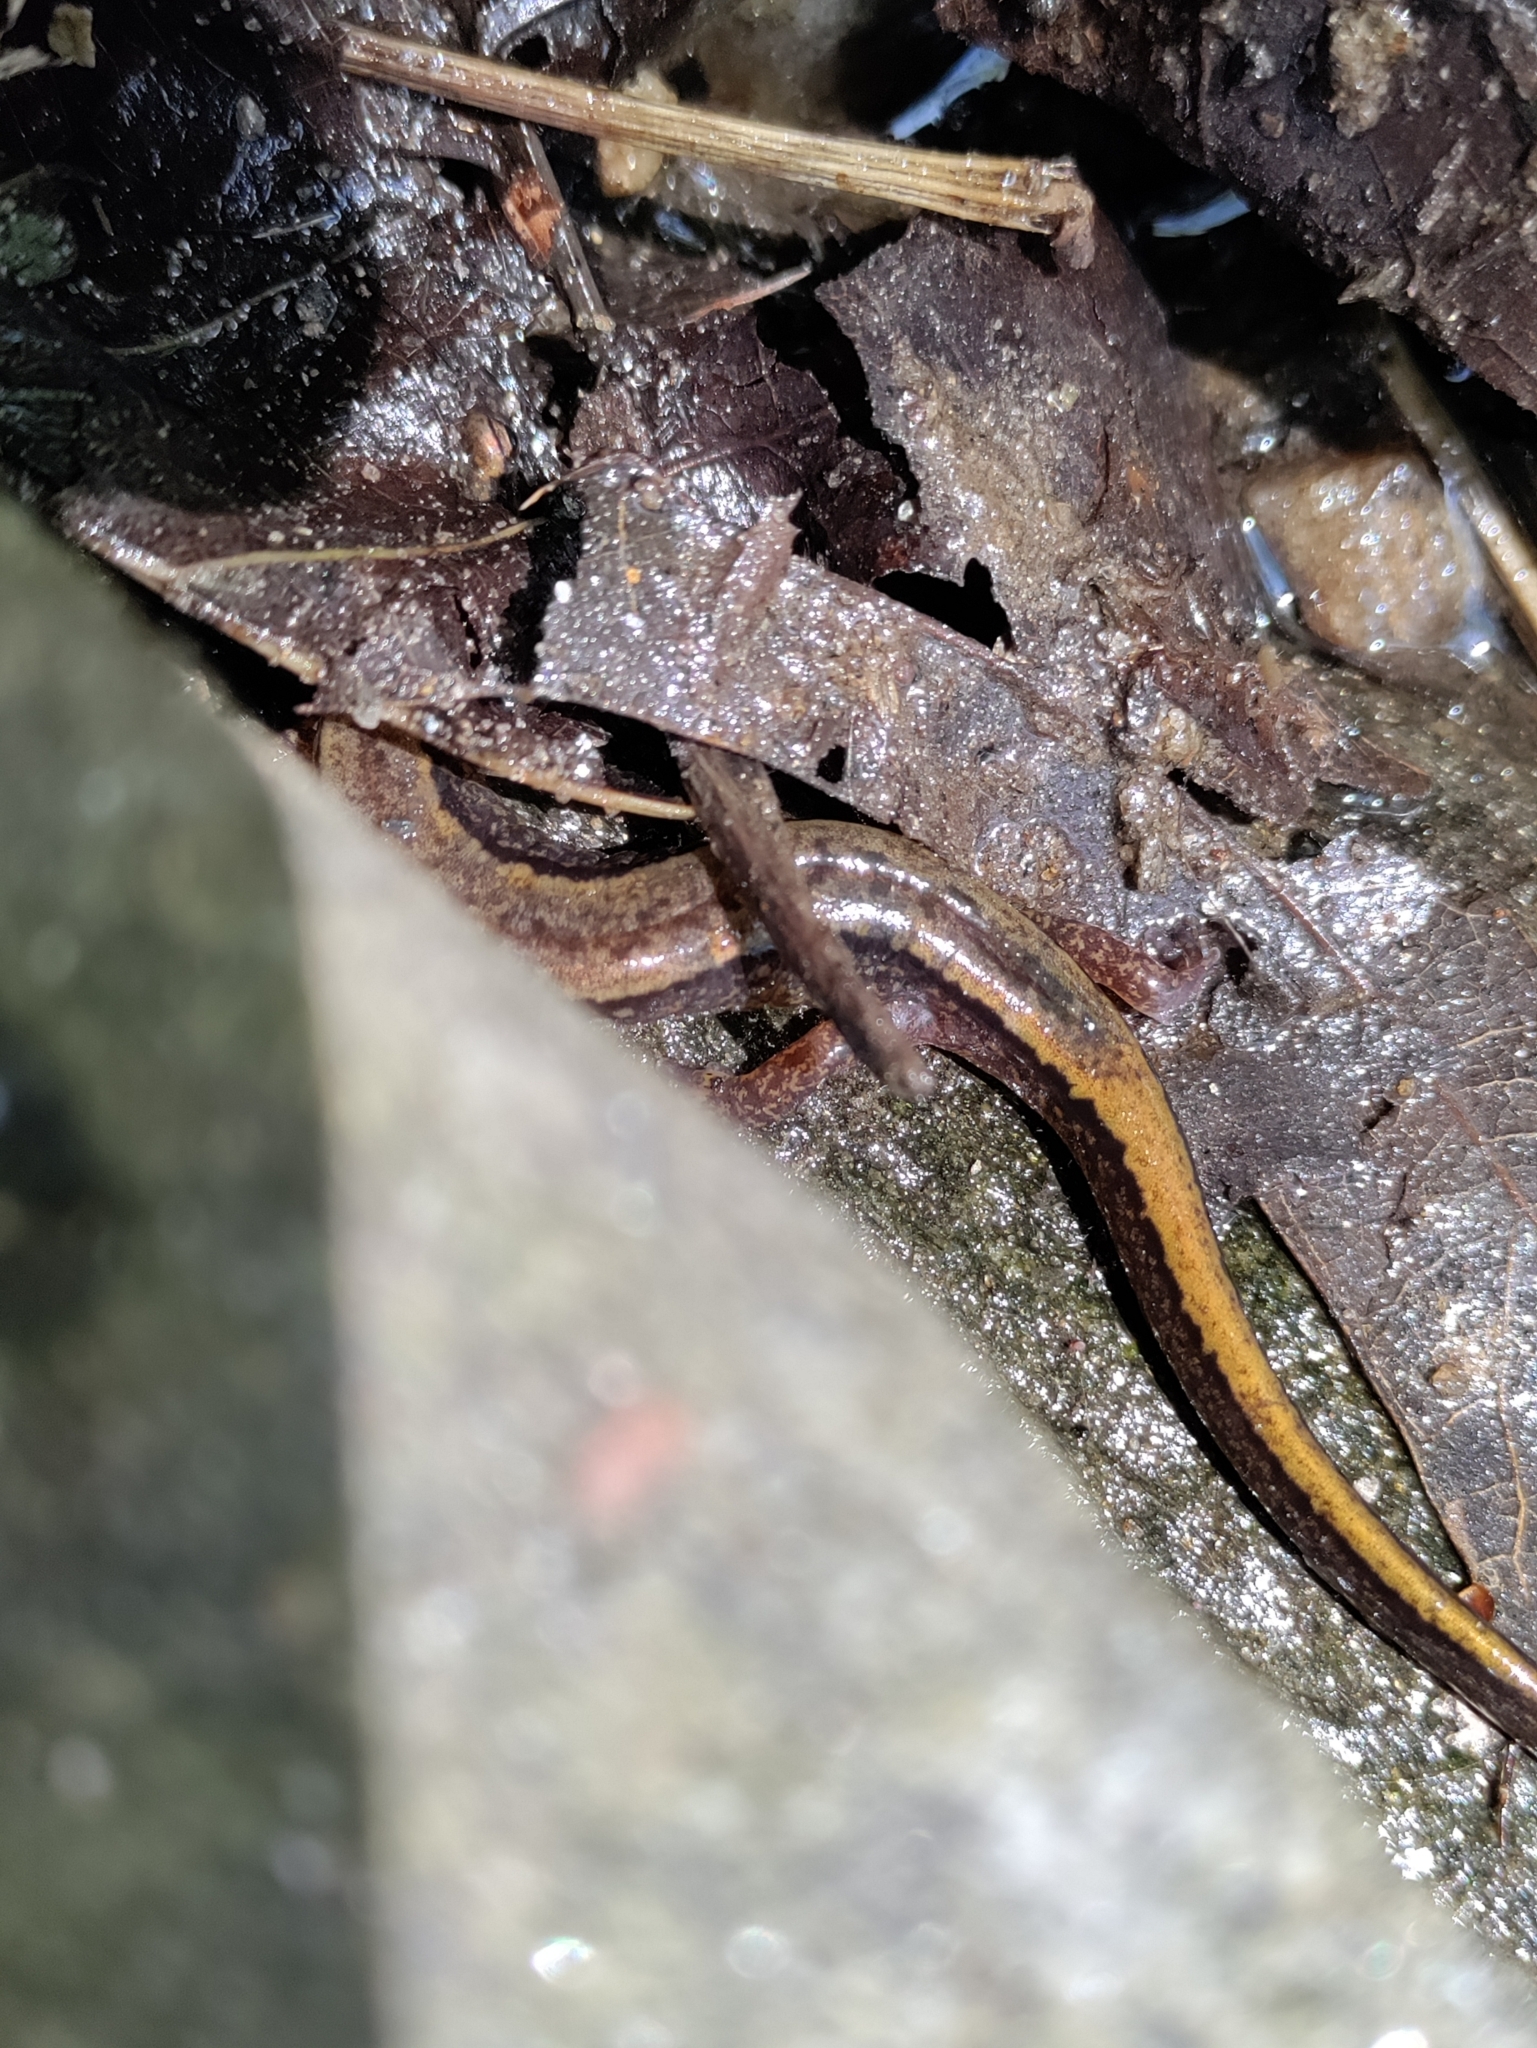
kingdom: Animalia
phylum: Chordata
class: Amphibia
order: Caudata
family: Plethodontidae
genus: Eurycea
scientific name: Eurycea bislineata
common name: Northern two-lined salamander
